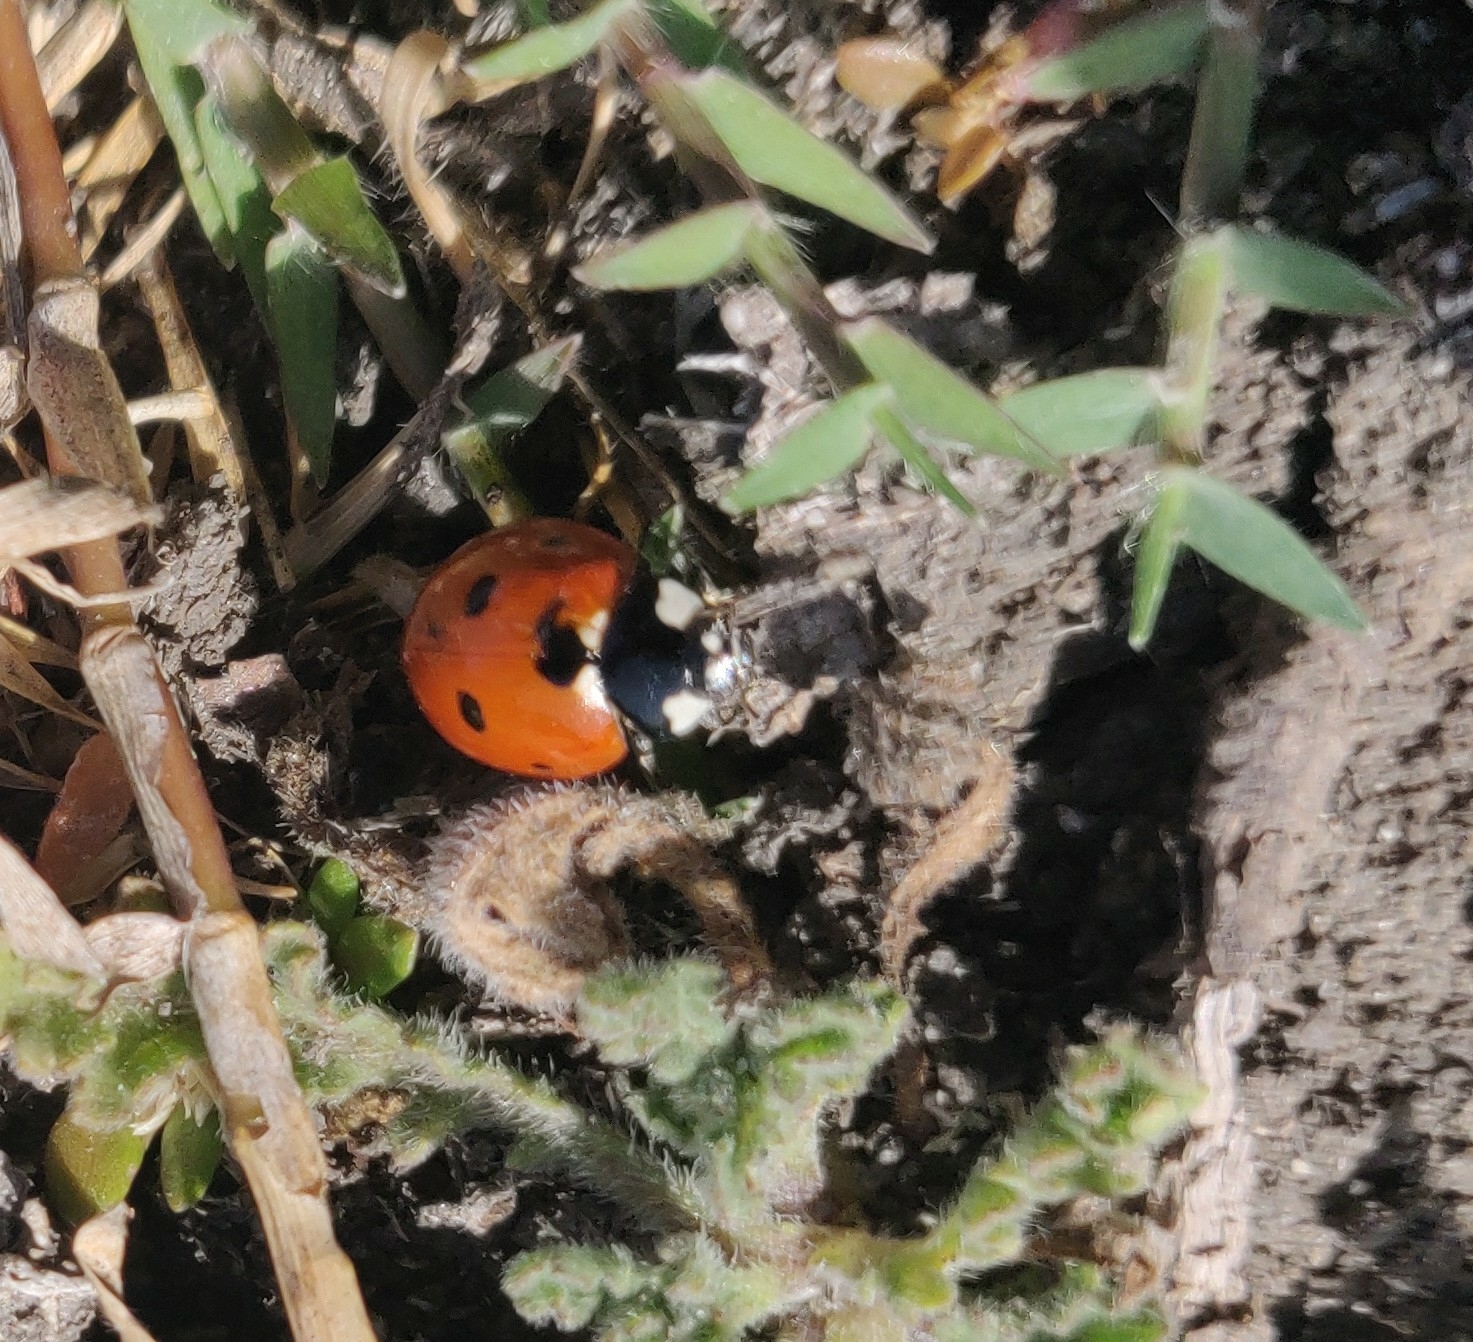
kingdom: Animalia
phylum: Arthropoda
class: Insecta
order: Coleoptera
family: Coccinellidae
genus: Coccinella
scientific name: Coccinella septempunctata
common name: Sevenspotted lady beetle
